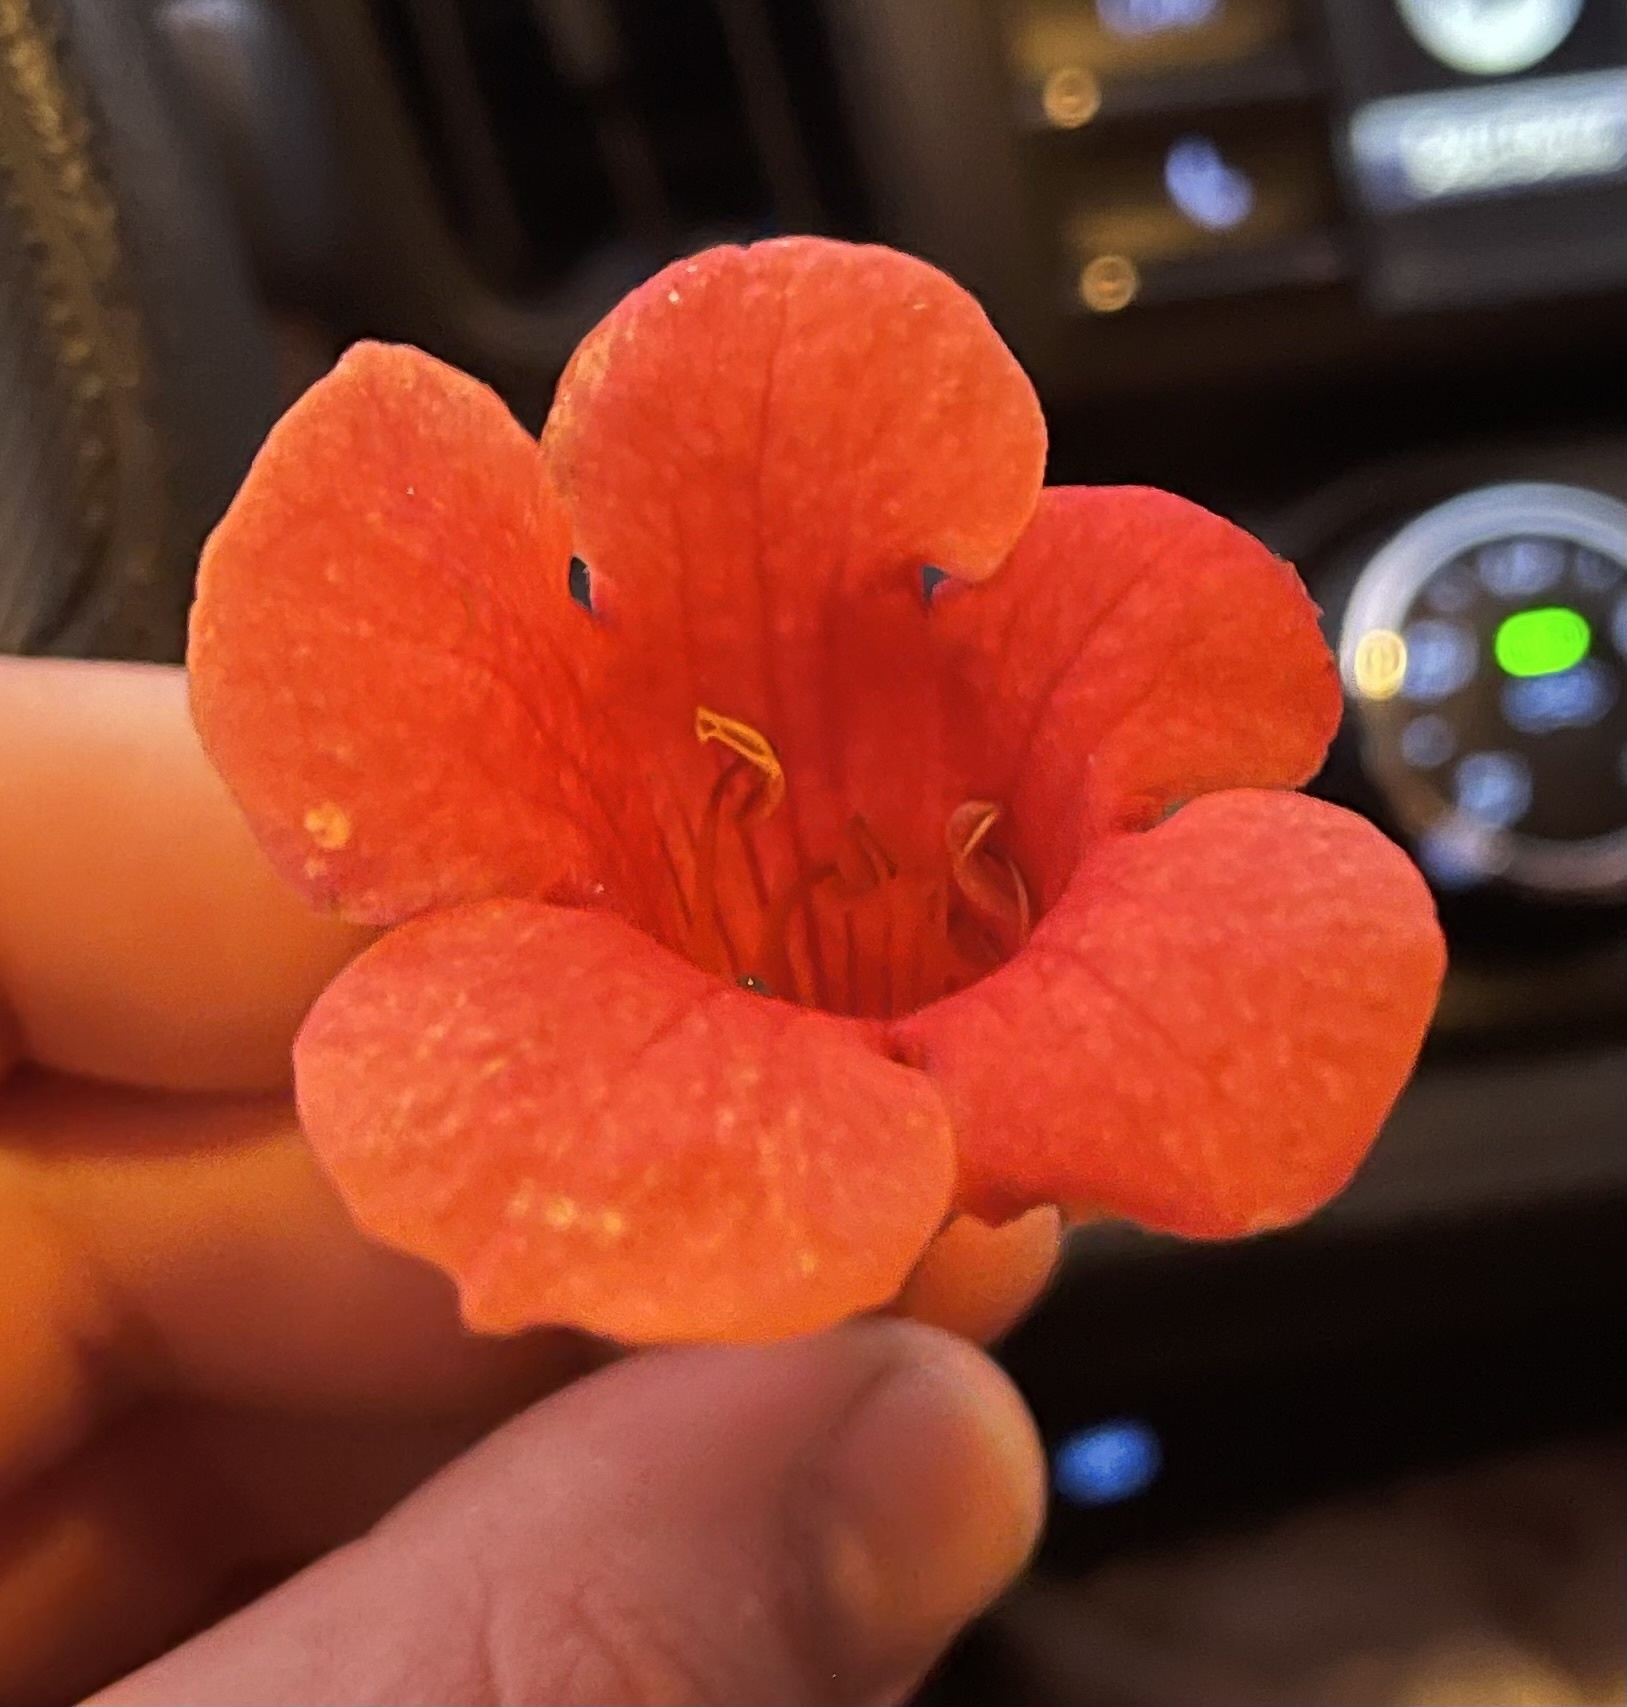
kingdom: Plantae
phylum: Tracheophyta
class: Magnoliopsida
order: Lamiales
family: Bignoniaceae
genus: Campsis
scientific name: Campsis radicans
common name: Trumpet-creeper
